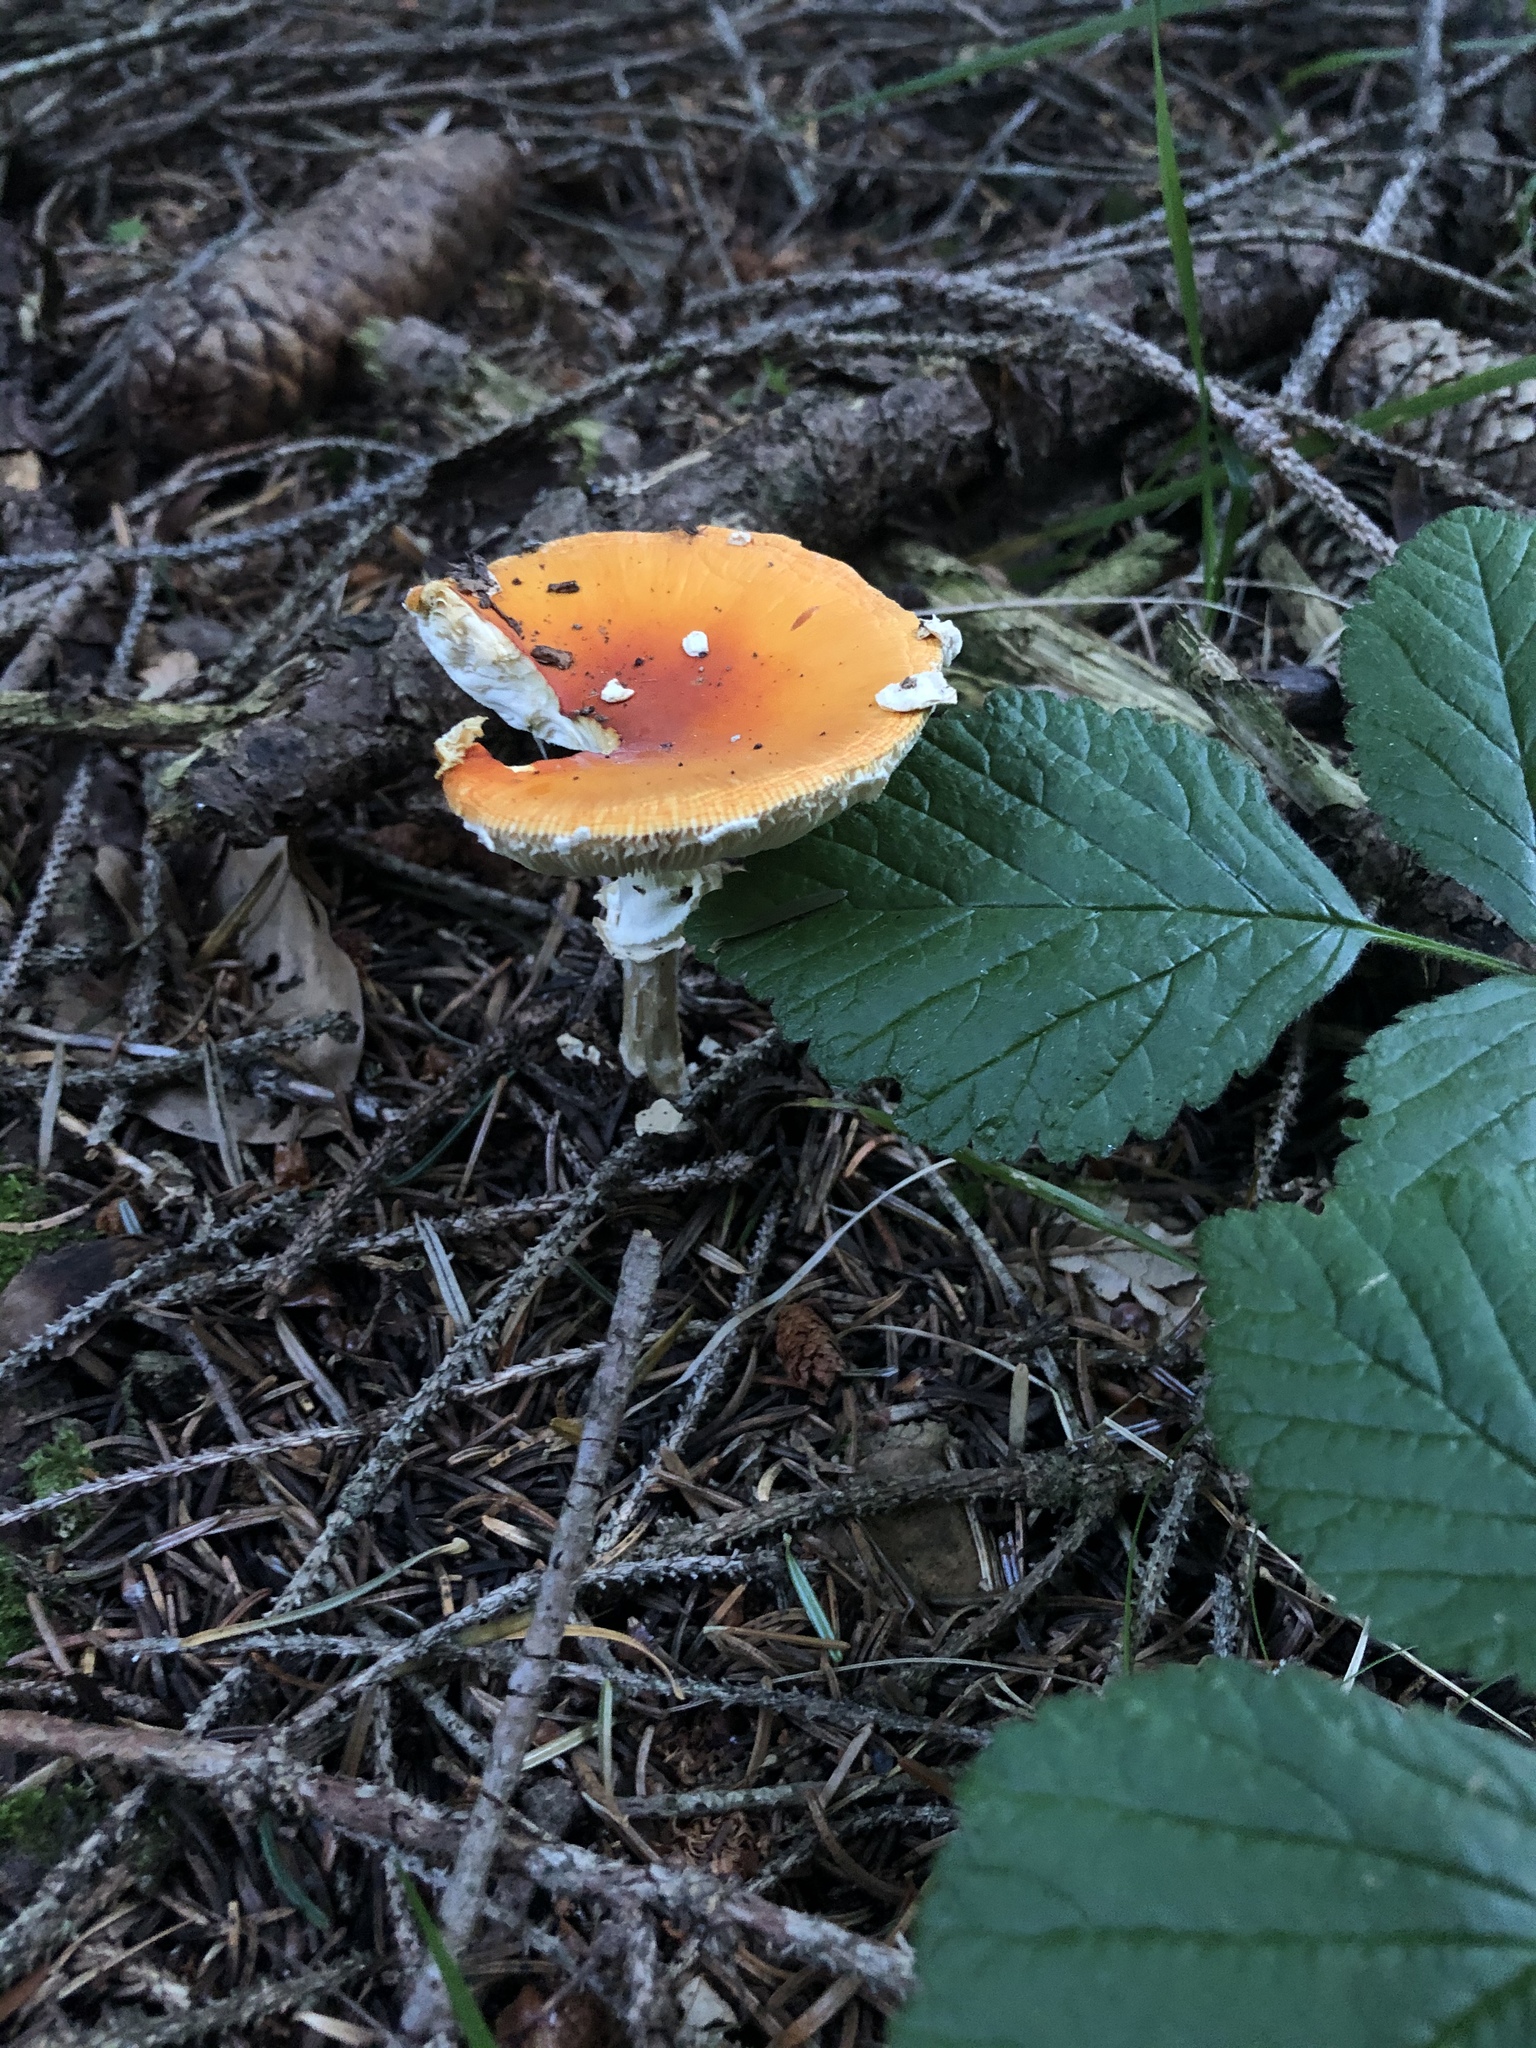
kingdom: Fungi
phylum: Basidiomycota
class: Agaricomycetes
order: Agaricales
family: Amanitaceae
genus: Amanita
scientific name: Amanita muscaria
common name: Fly agaric
